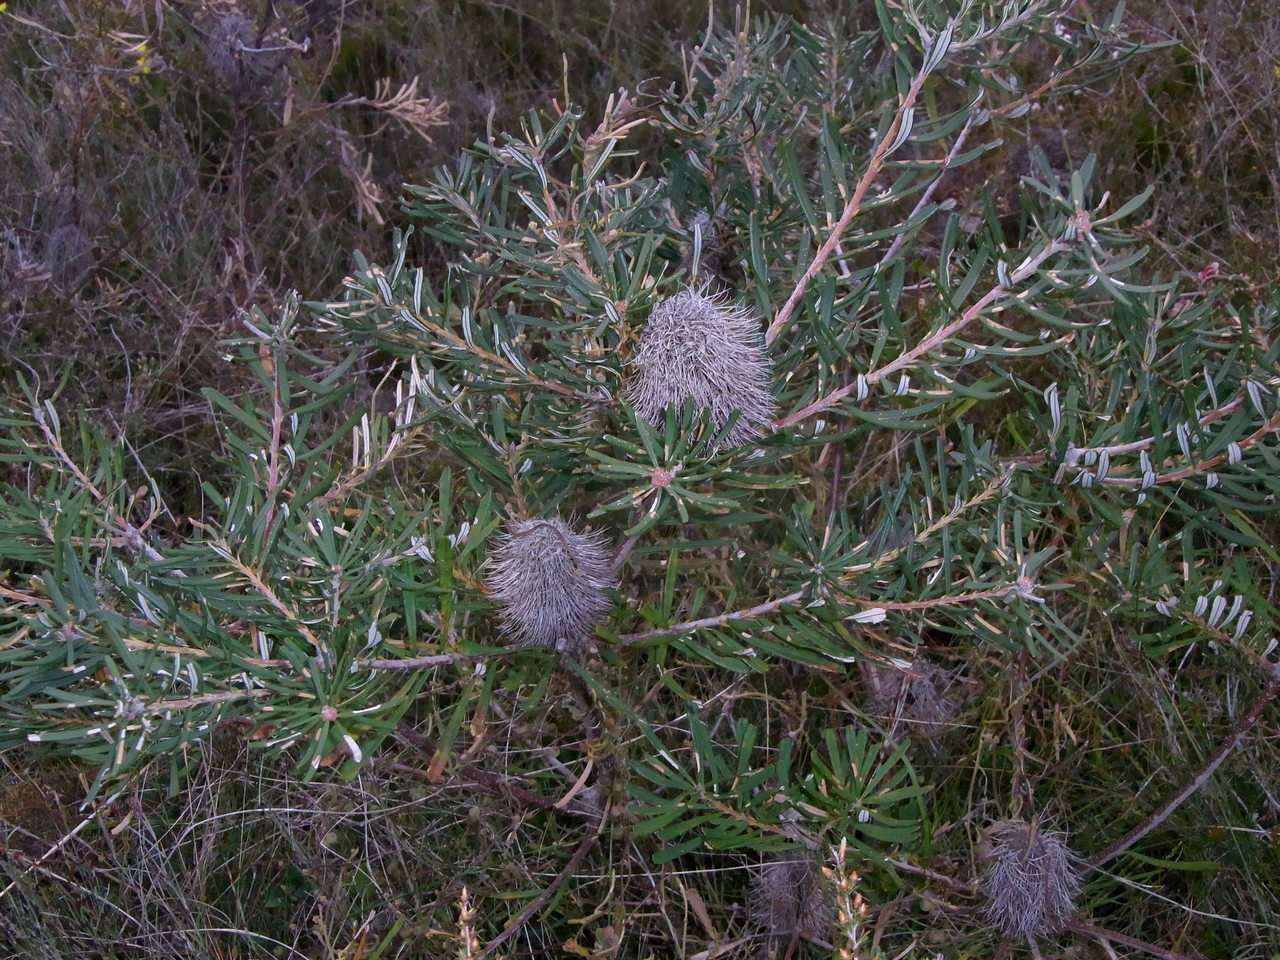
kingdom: Plantae
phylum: Tracheophyta
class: Magnoliopsida
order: Proteales
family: Proteaceae
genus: Banksia
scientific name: Banksia marginata
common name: Silver banksia
